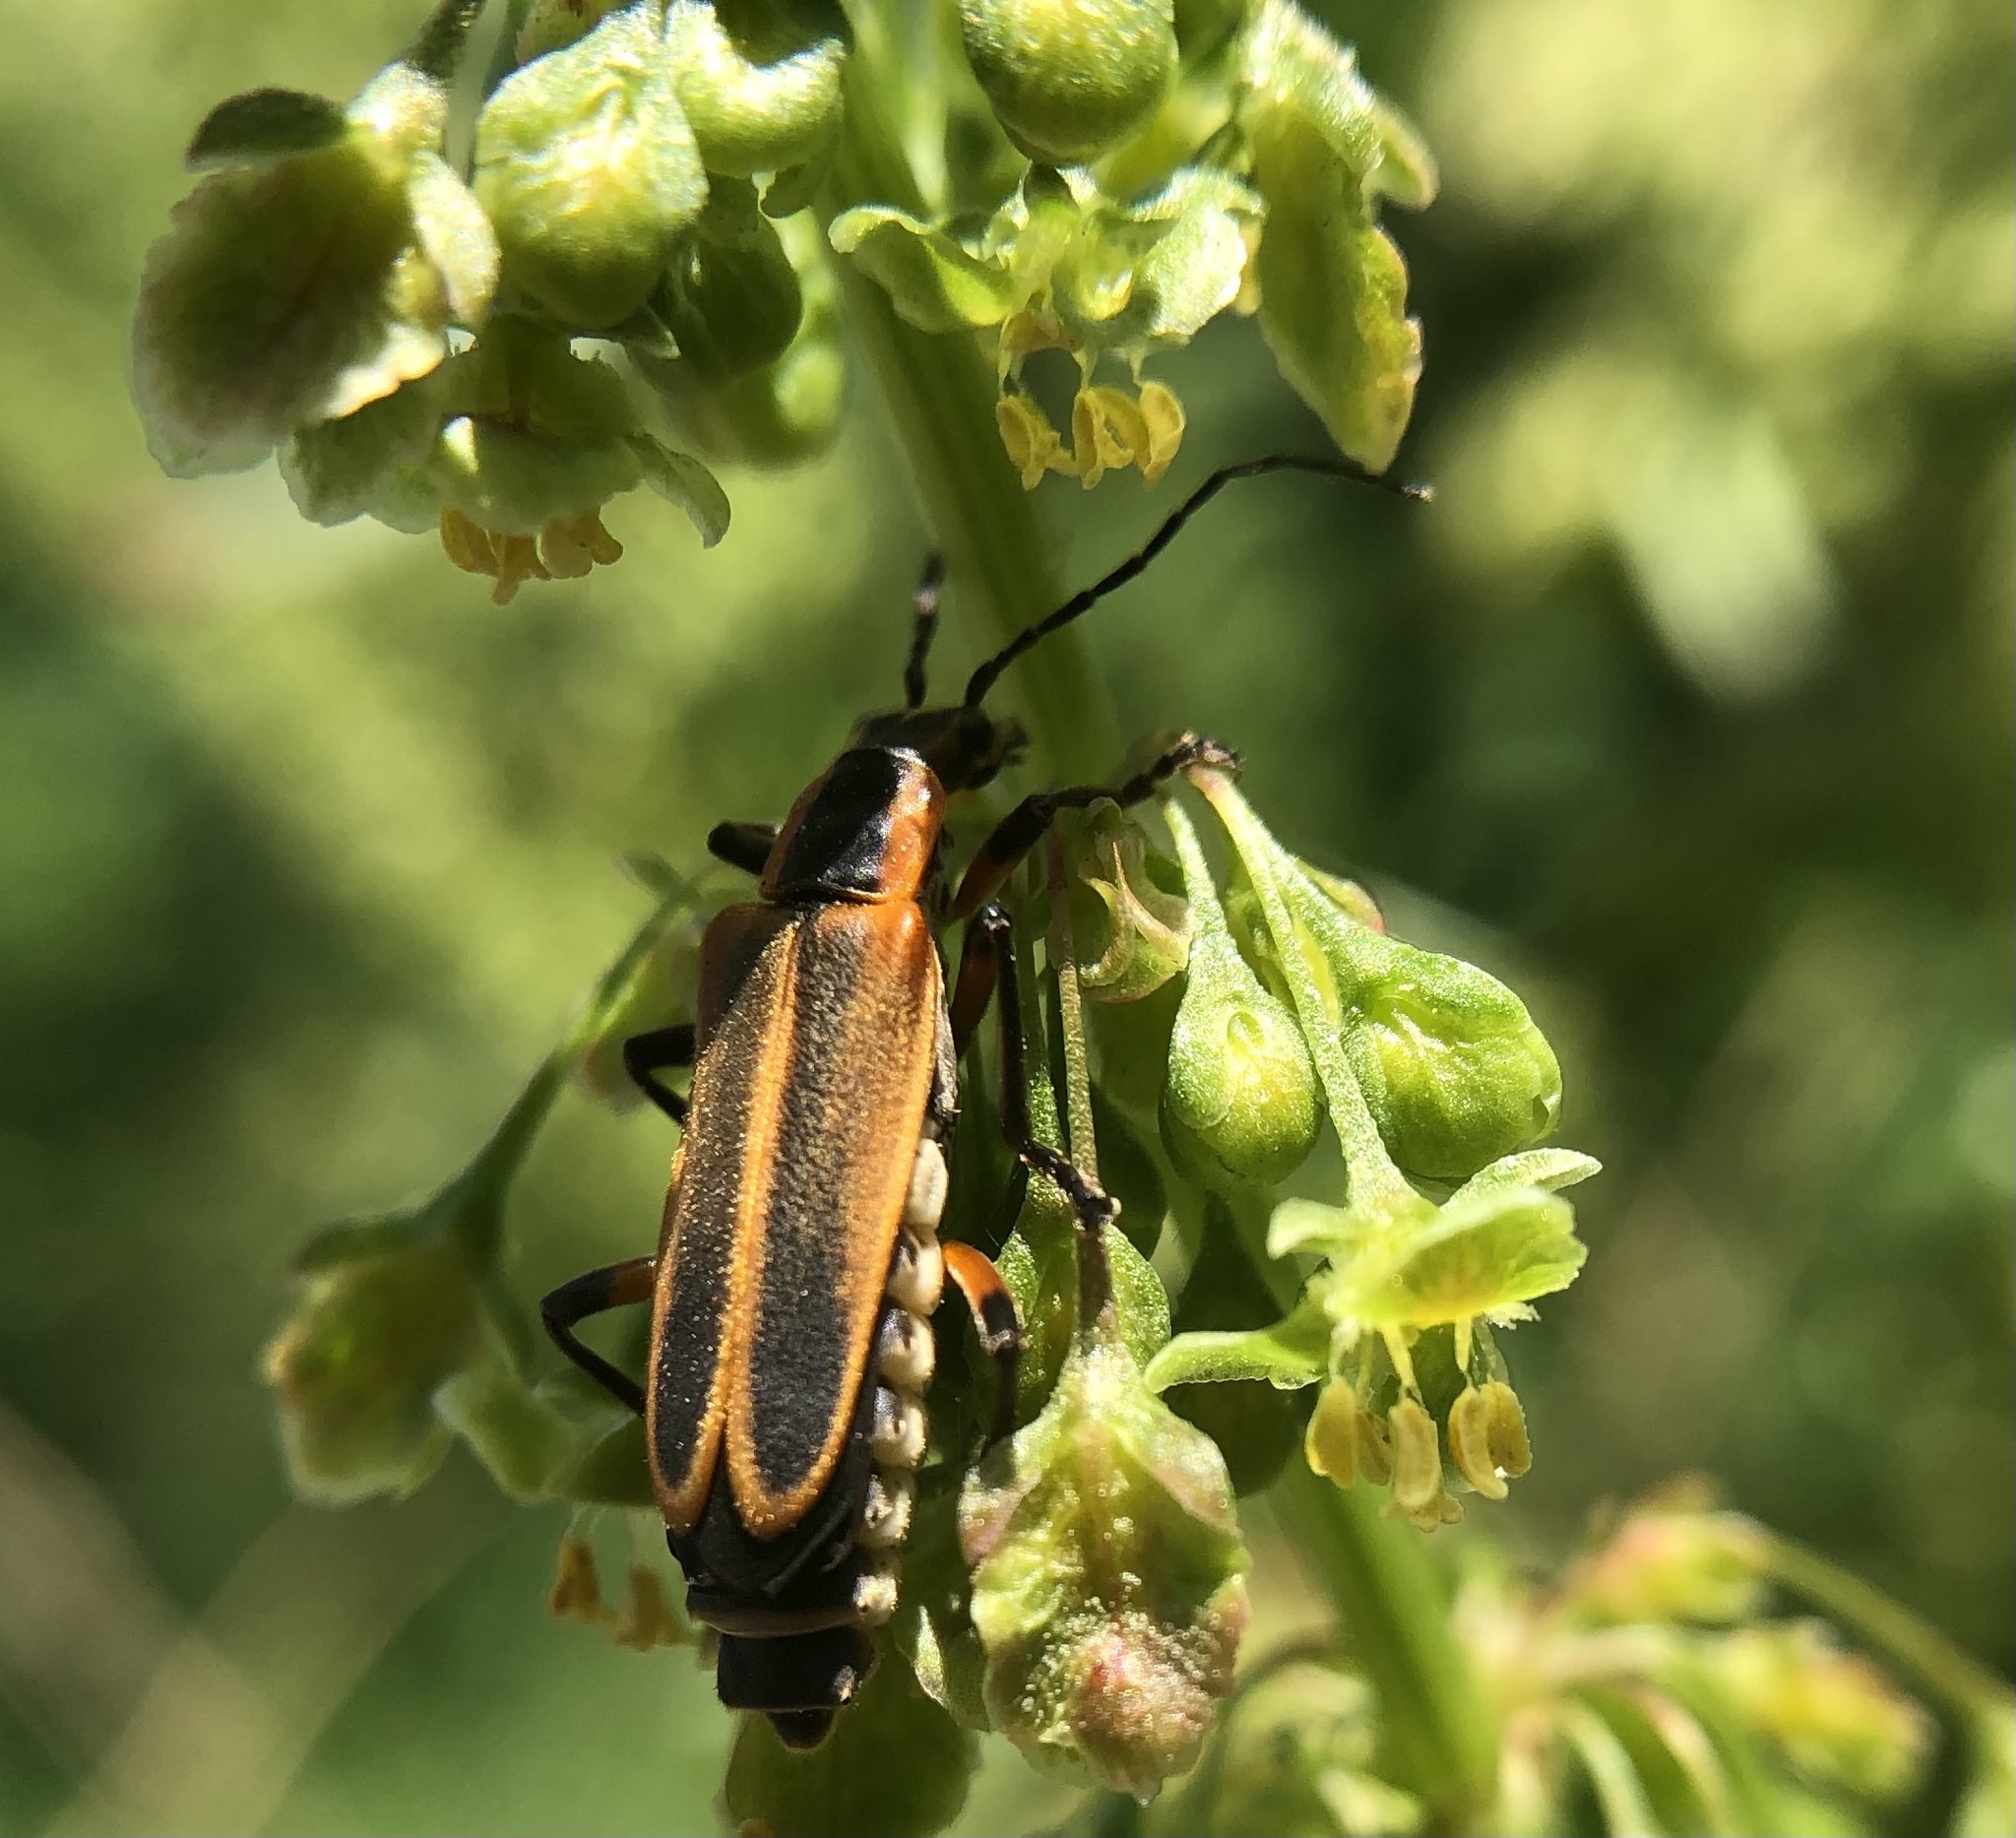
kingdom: Animalia
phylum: Arthropoda
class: Insecta
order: Coleoptera
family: Cantharidae
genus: Chauliognathus
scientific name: Chauliognathus marginatus
